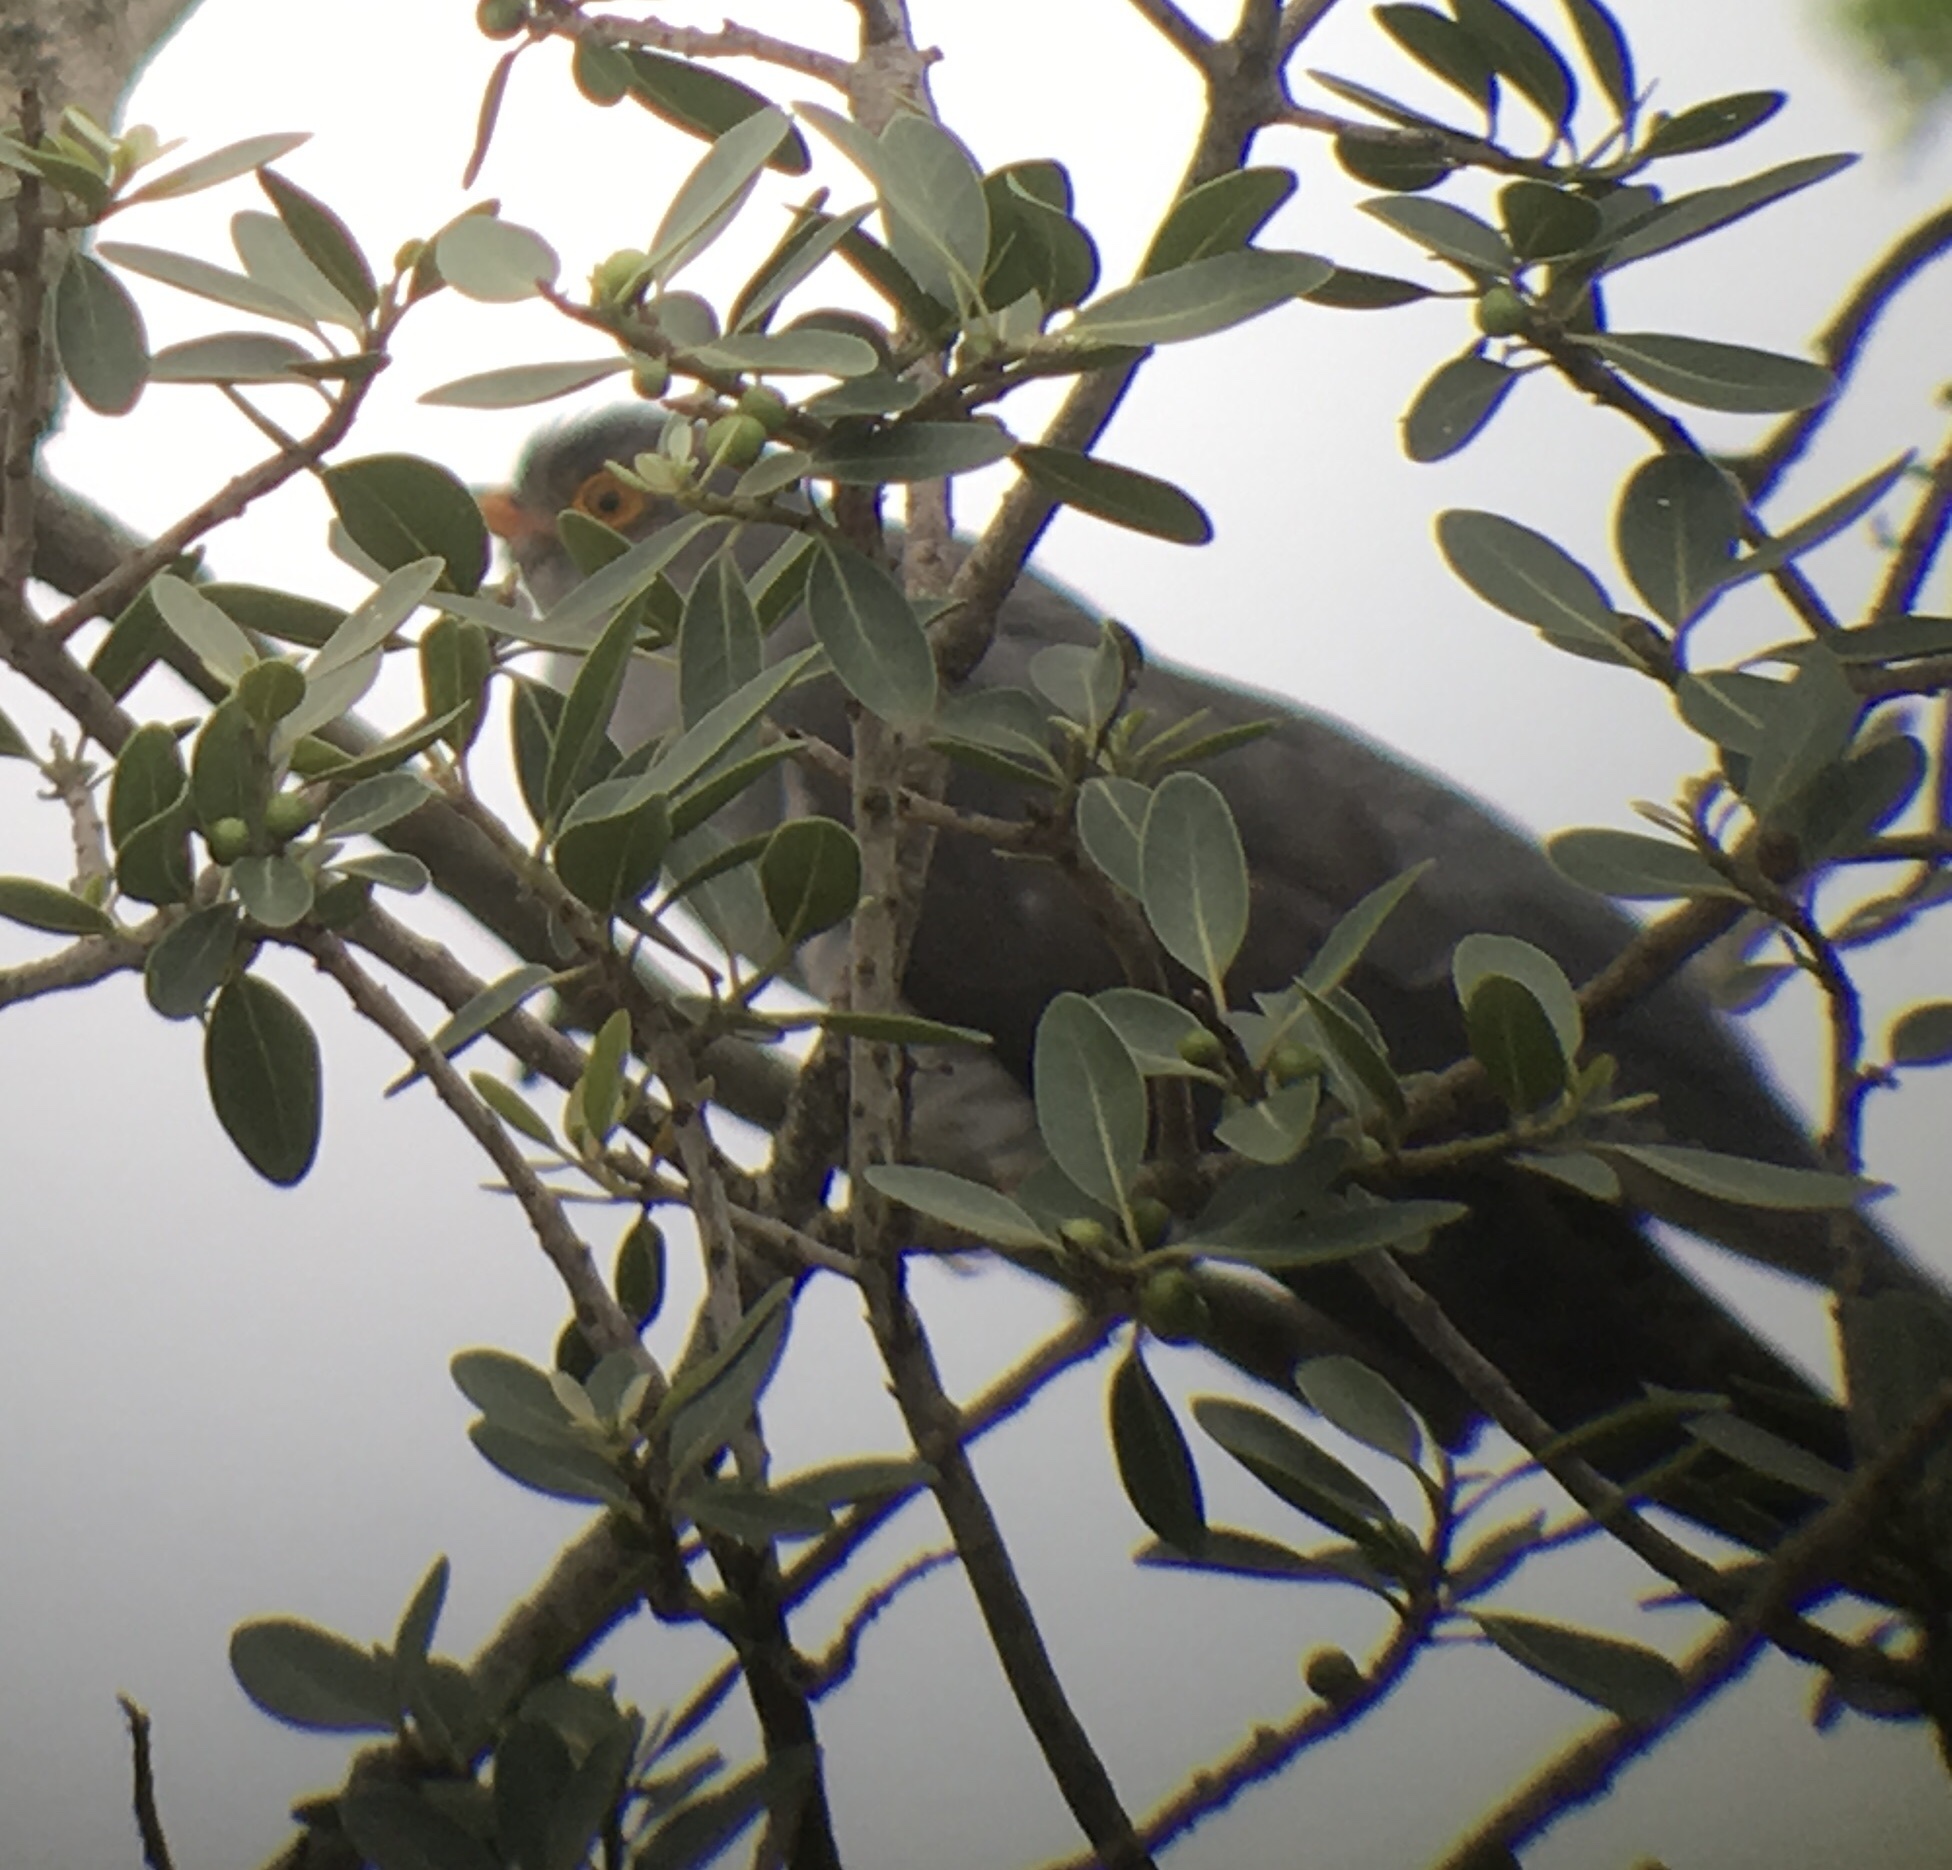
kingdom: Animalia
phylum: Chordata
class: Aves
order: Cuculiformes
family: Cuculidae
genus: Cuculus
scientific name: Cuculus gularis
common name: African cuckoo
